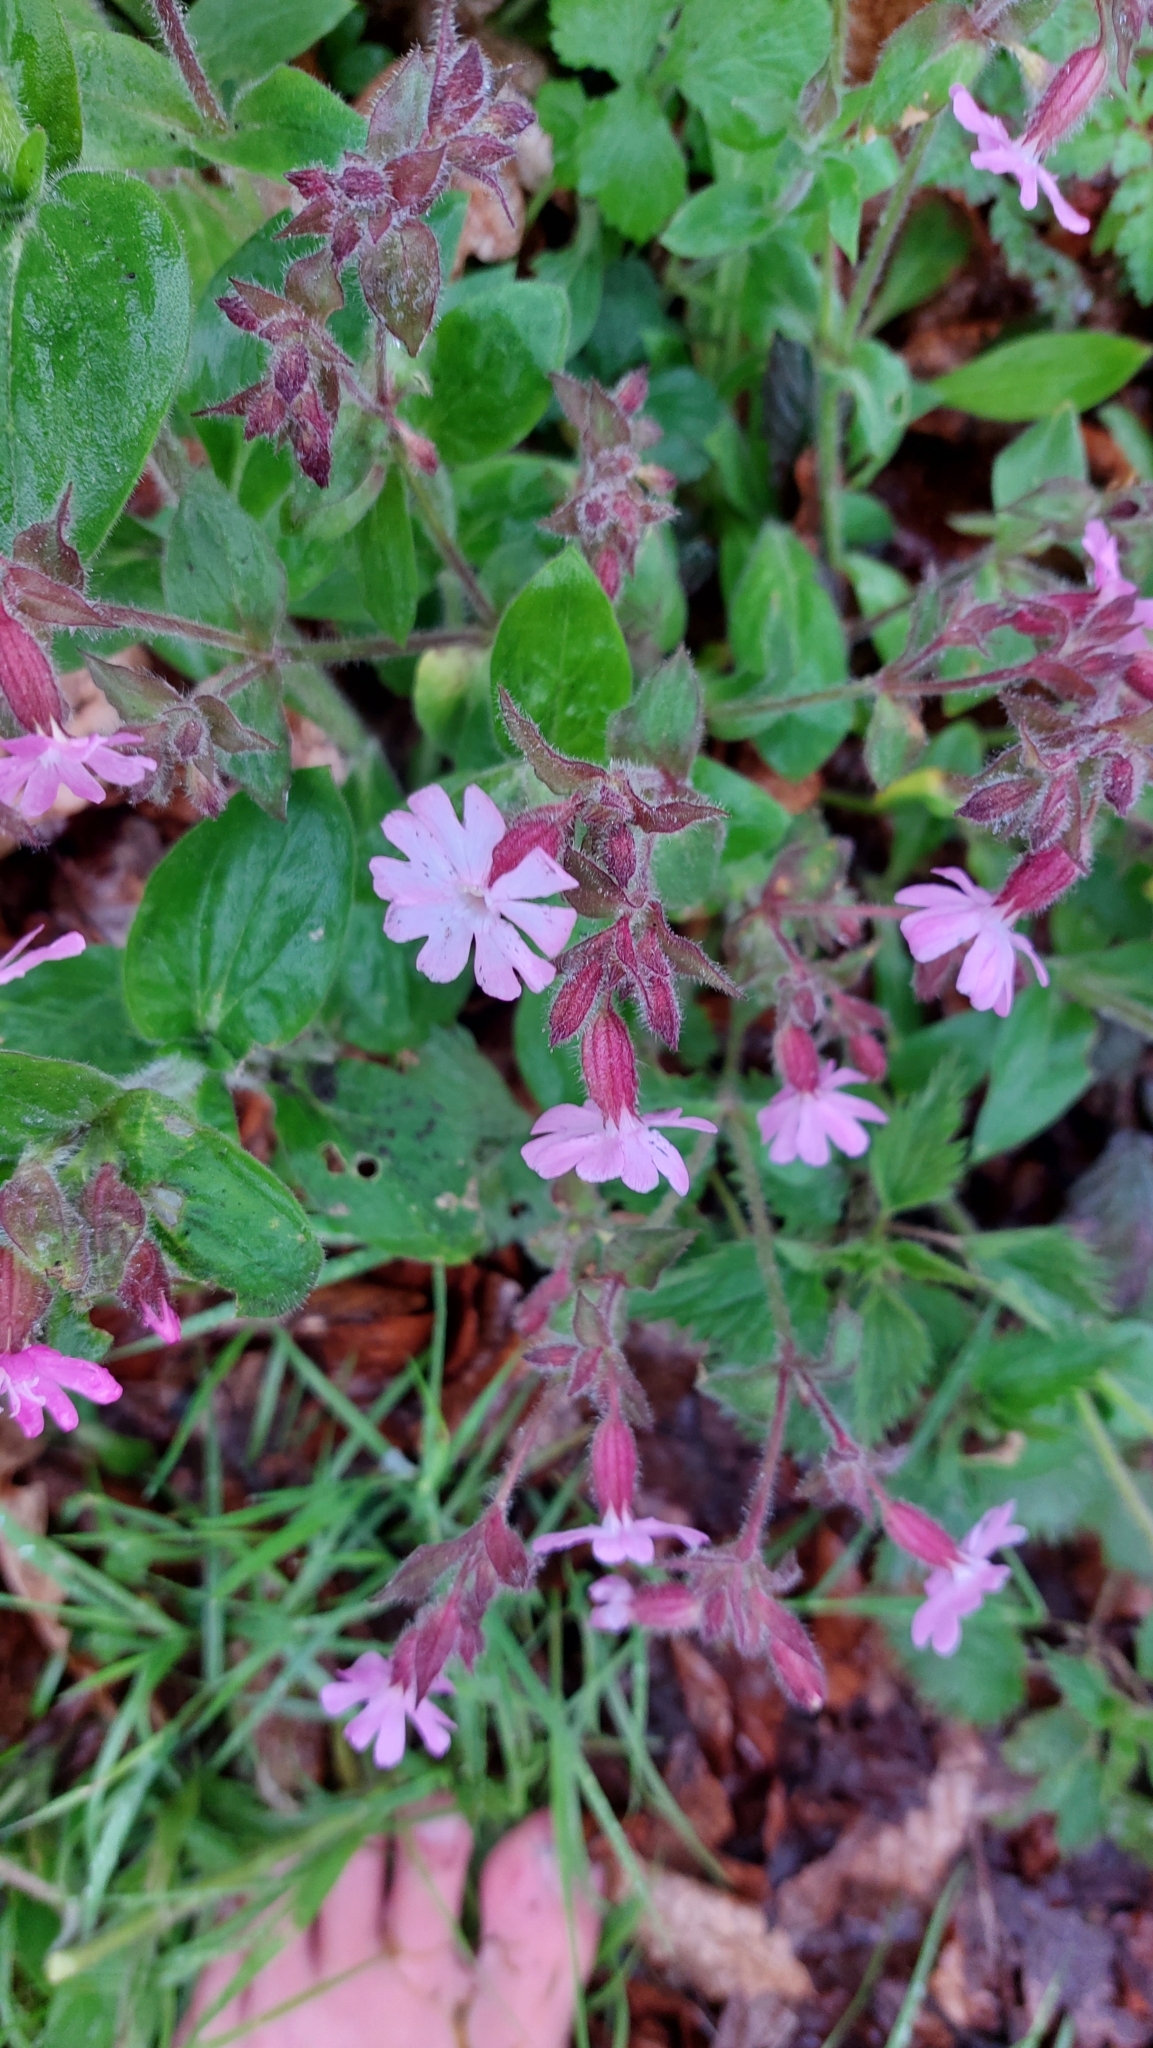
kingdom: Plantae
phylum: Tracheophyta
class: Magnoliopsida
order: Caryophyllales
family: Caryophyllaceae
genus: Silene
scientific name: Silene dioica
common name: Red campion
